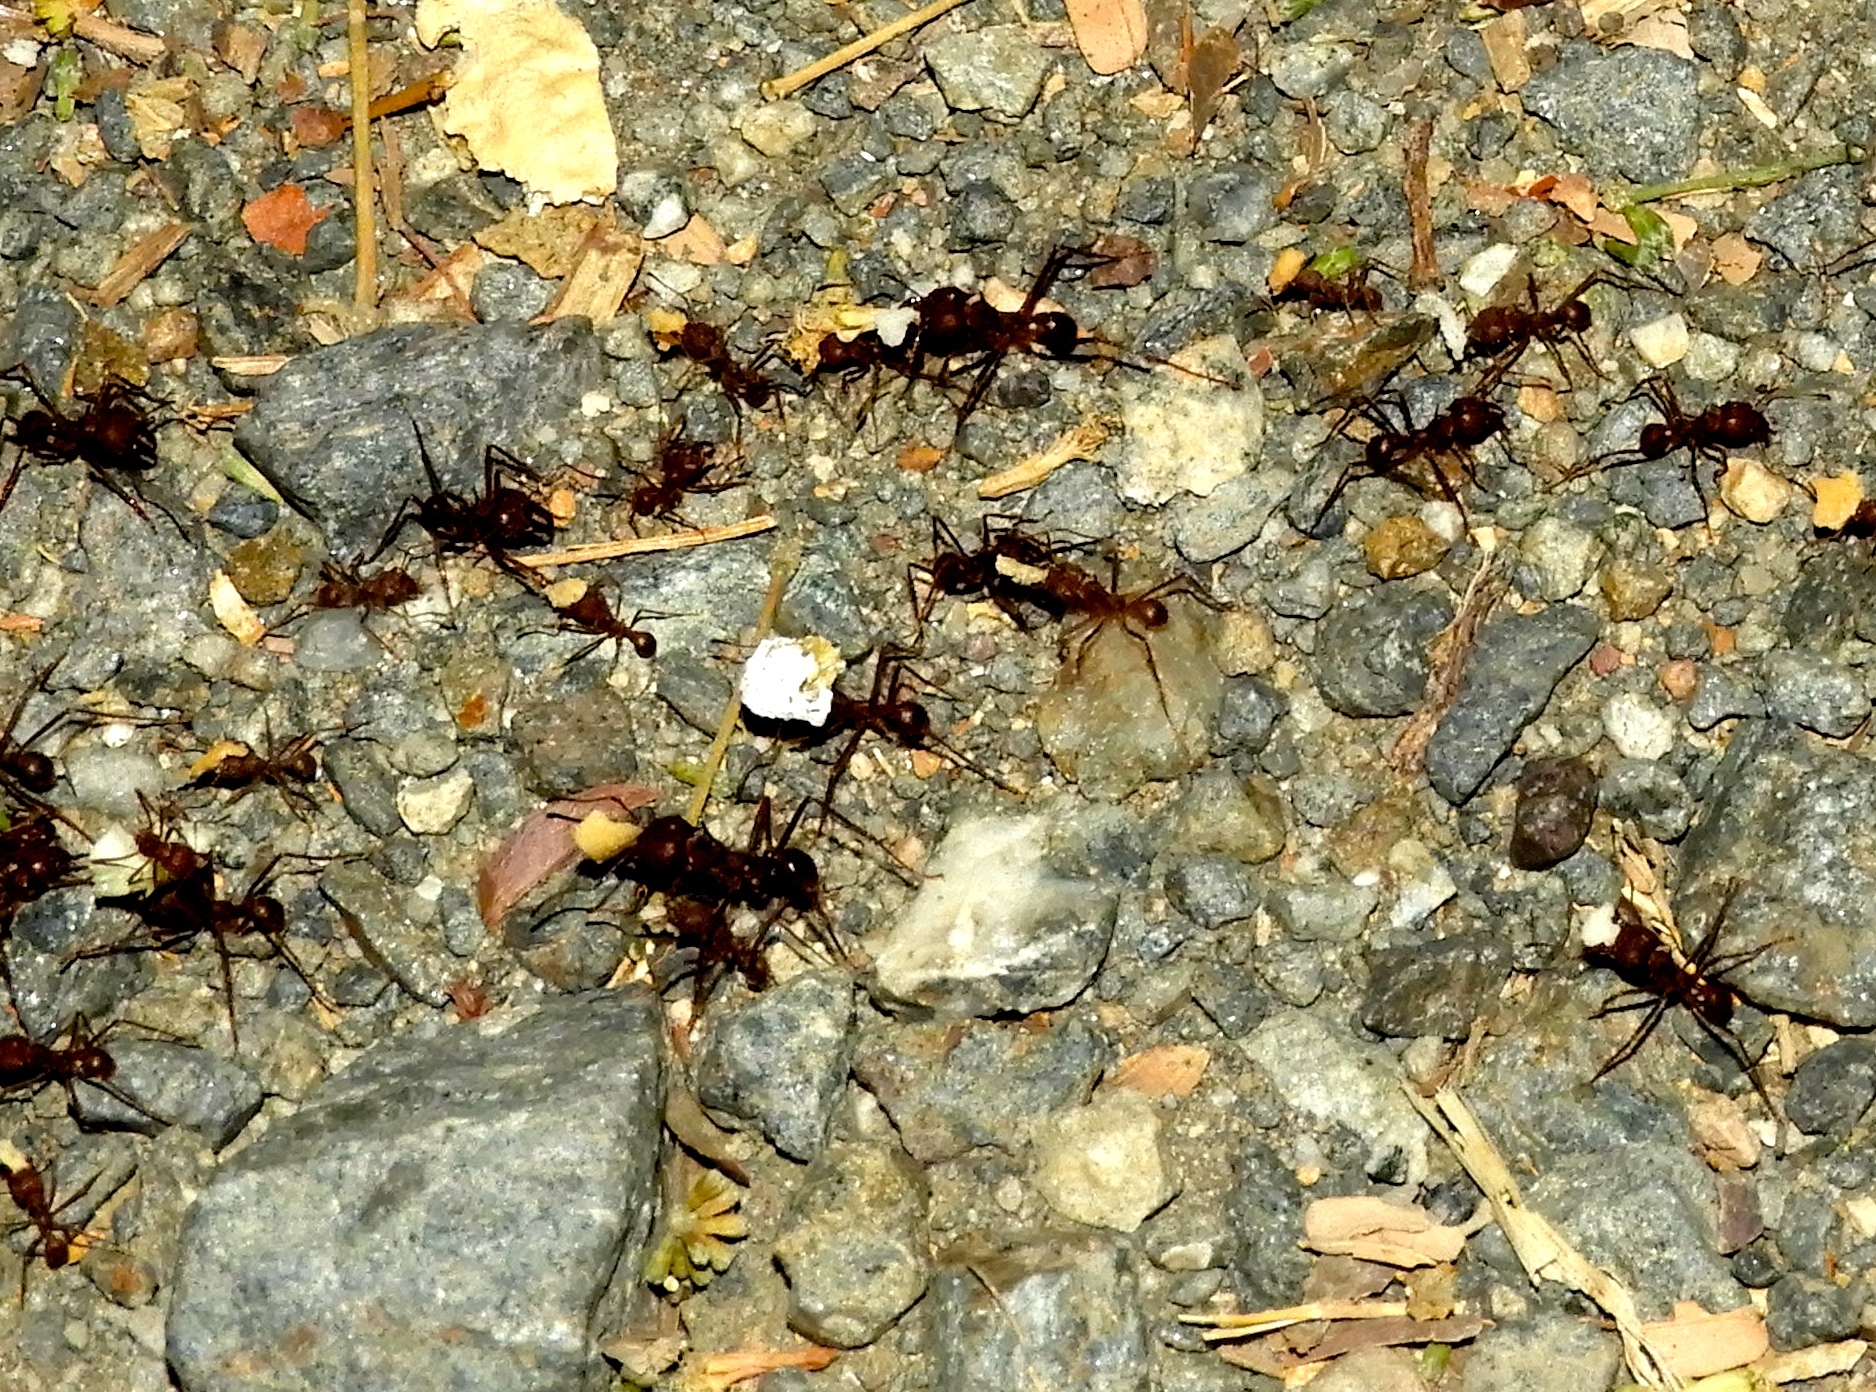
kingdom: Animalia
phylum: Arthropoda
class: Insecta
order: Hymenoptera
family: Formicidae
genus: Atta
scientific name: Atta mexicana
